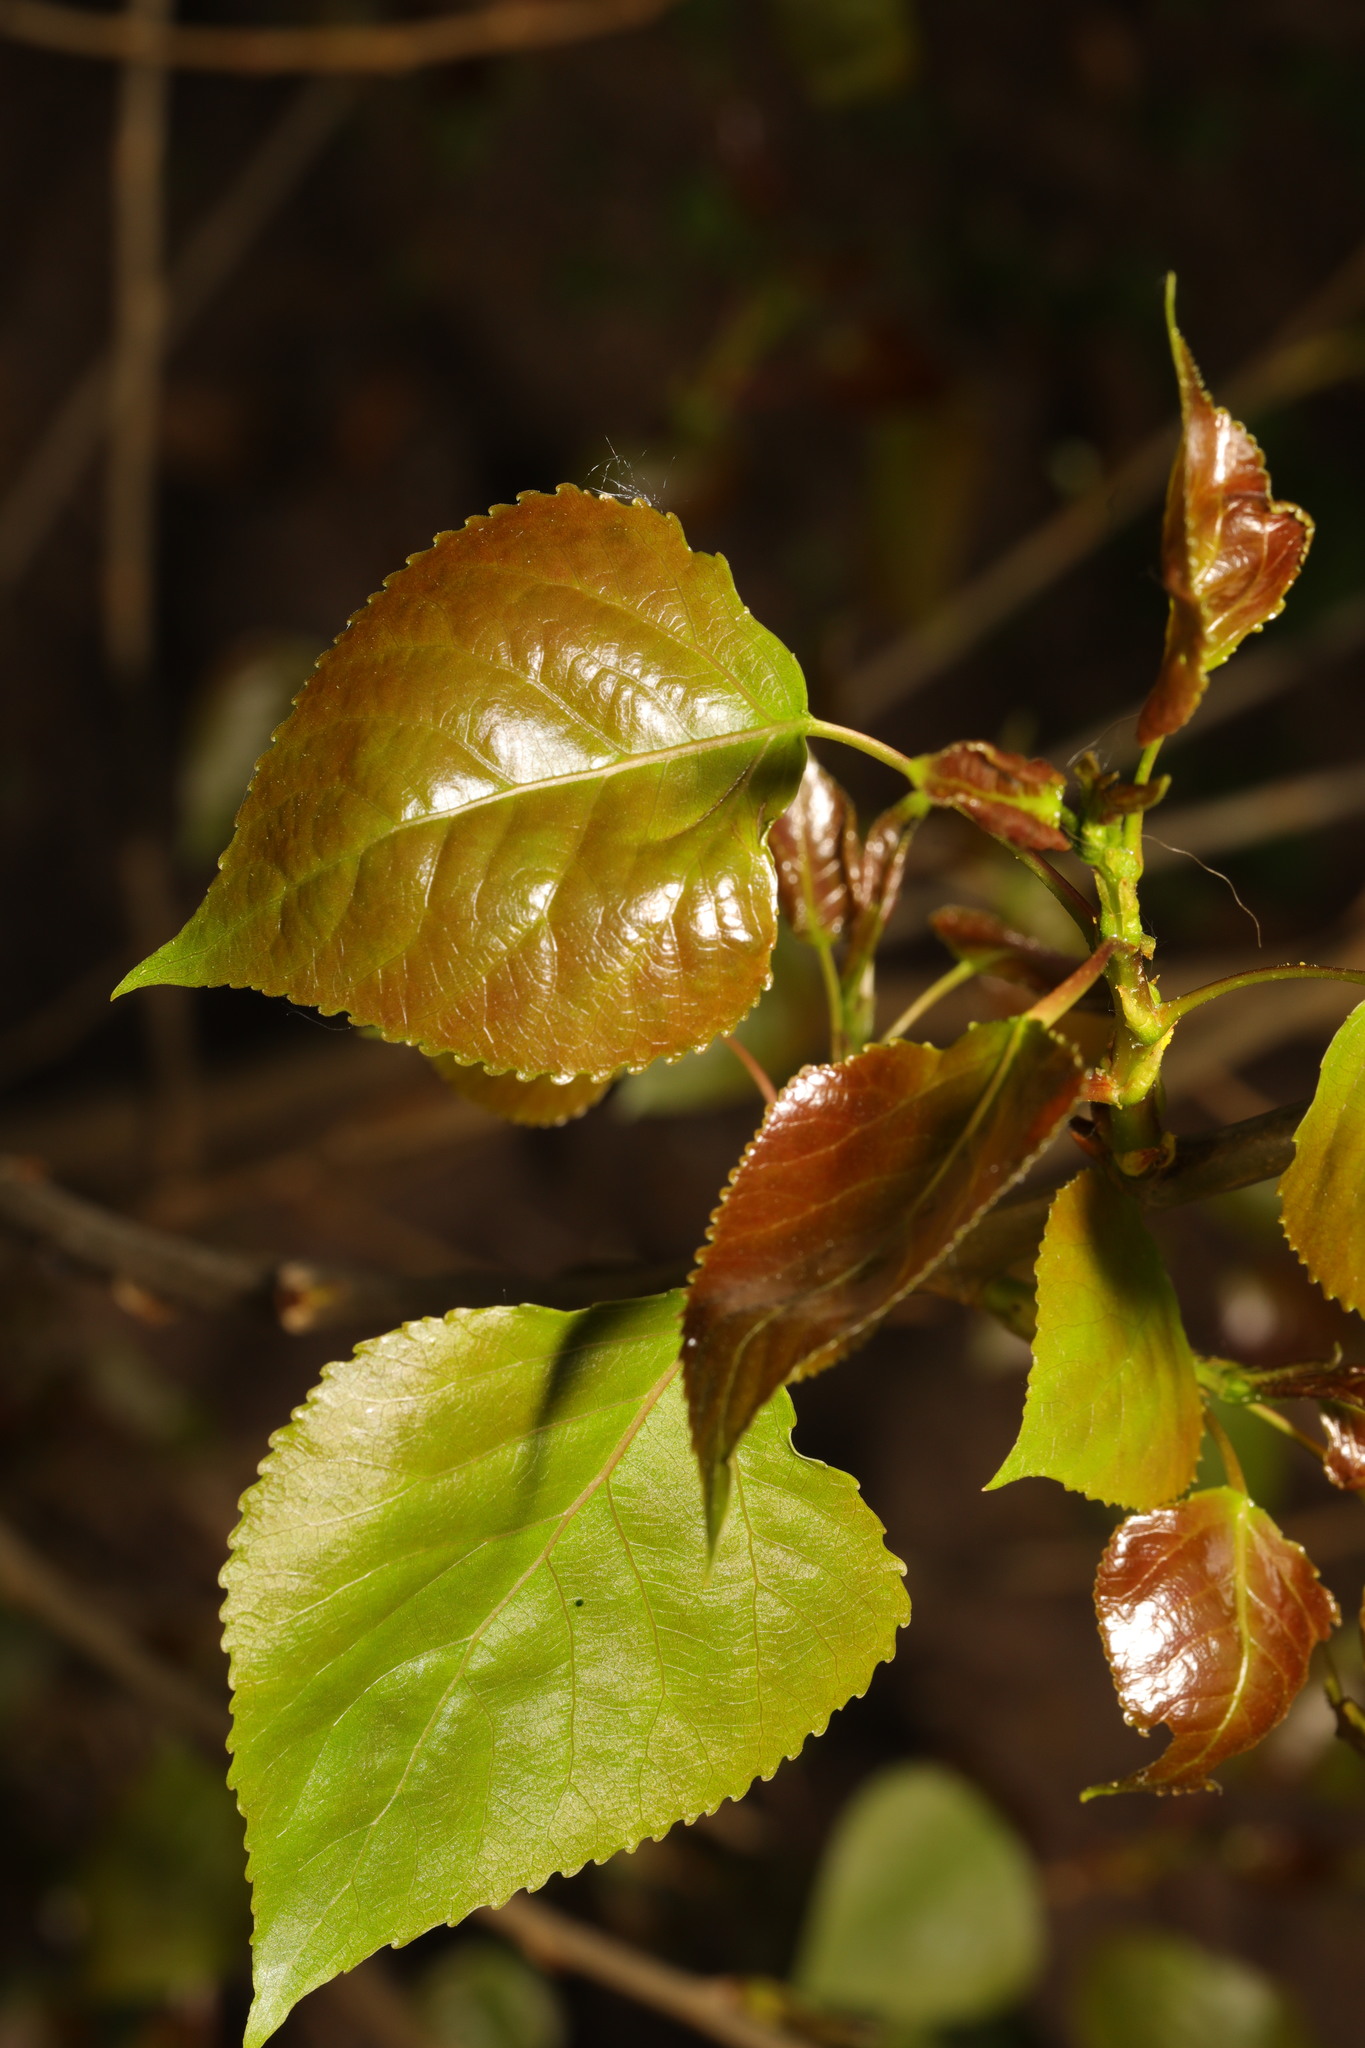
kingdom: Plantae
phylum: Tracheophyta
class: Magnoliopsida
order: Malpighiales
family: Salicaceae
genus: Populus
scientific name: Populus nigra
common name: Black poplar
